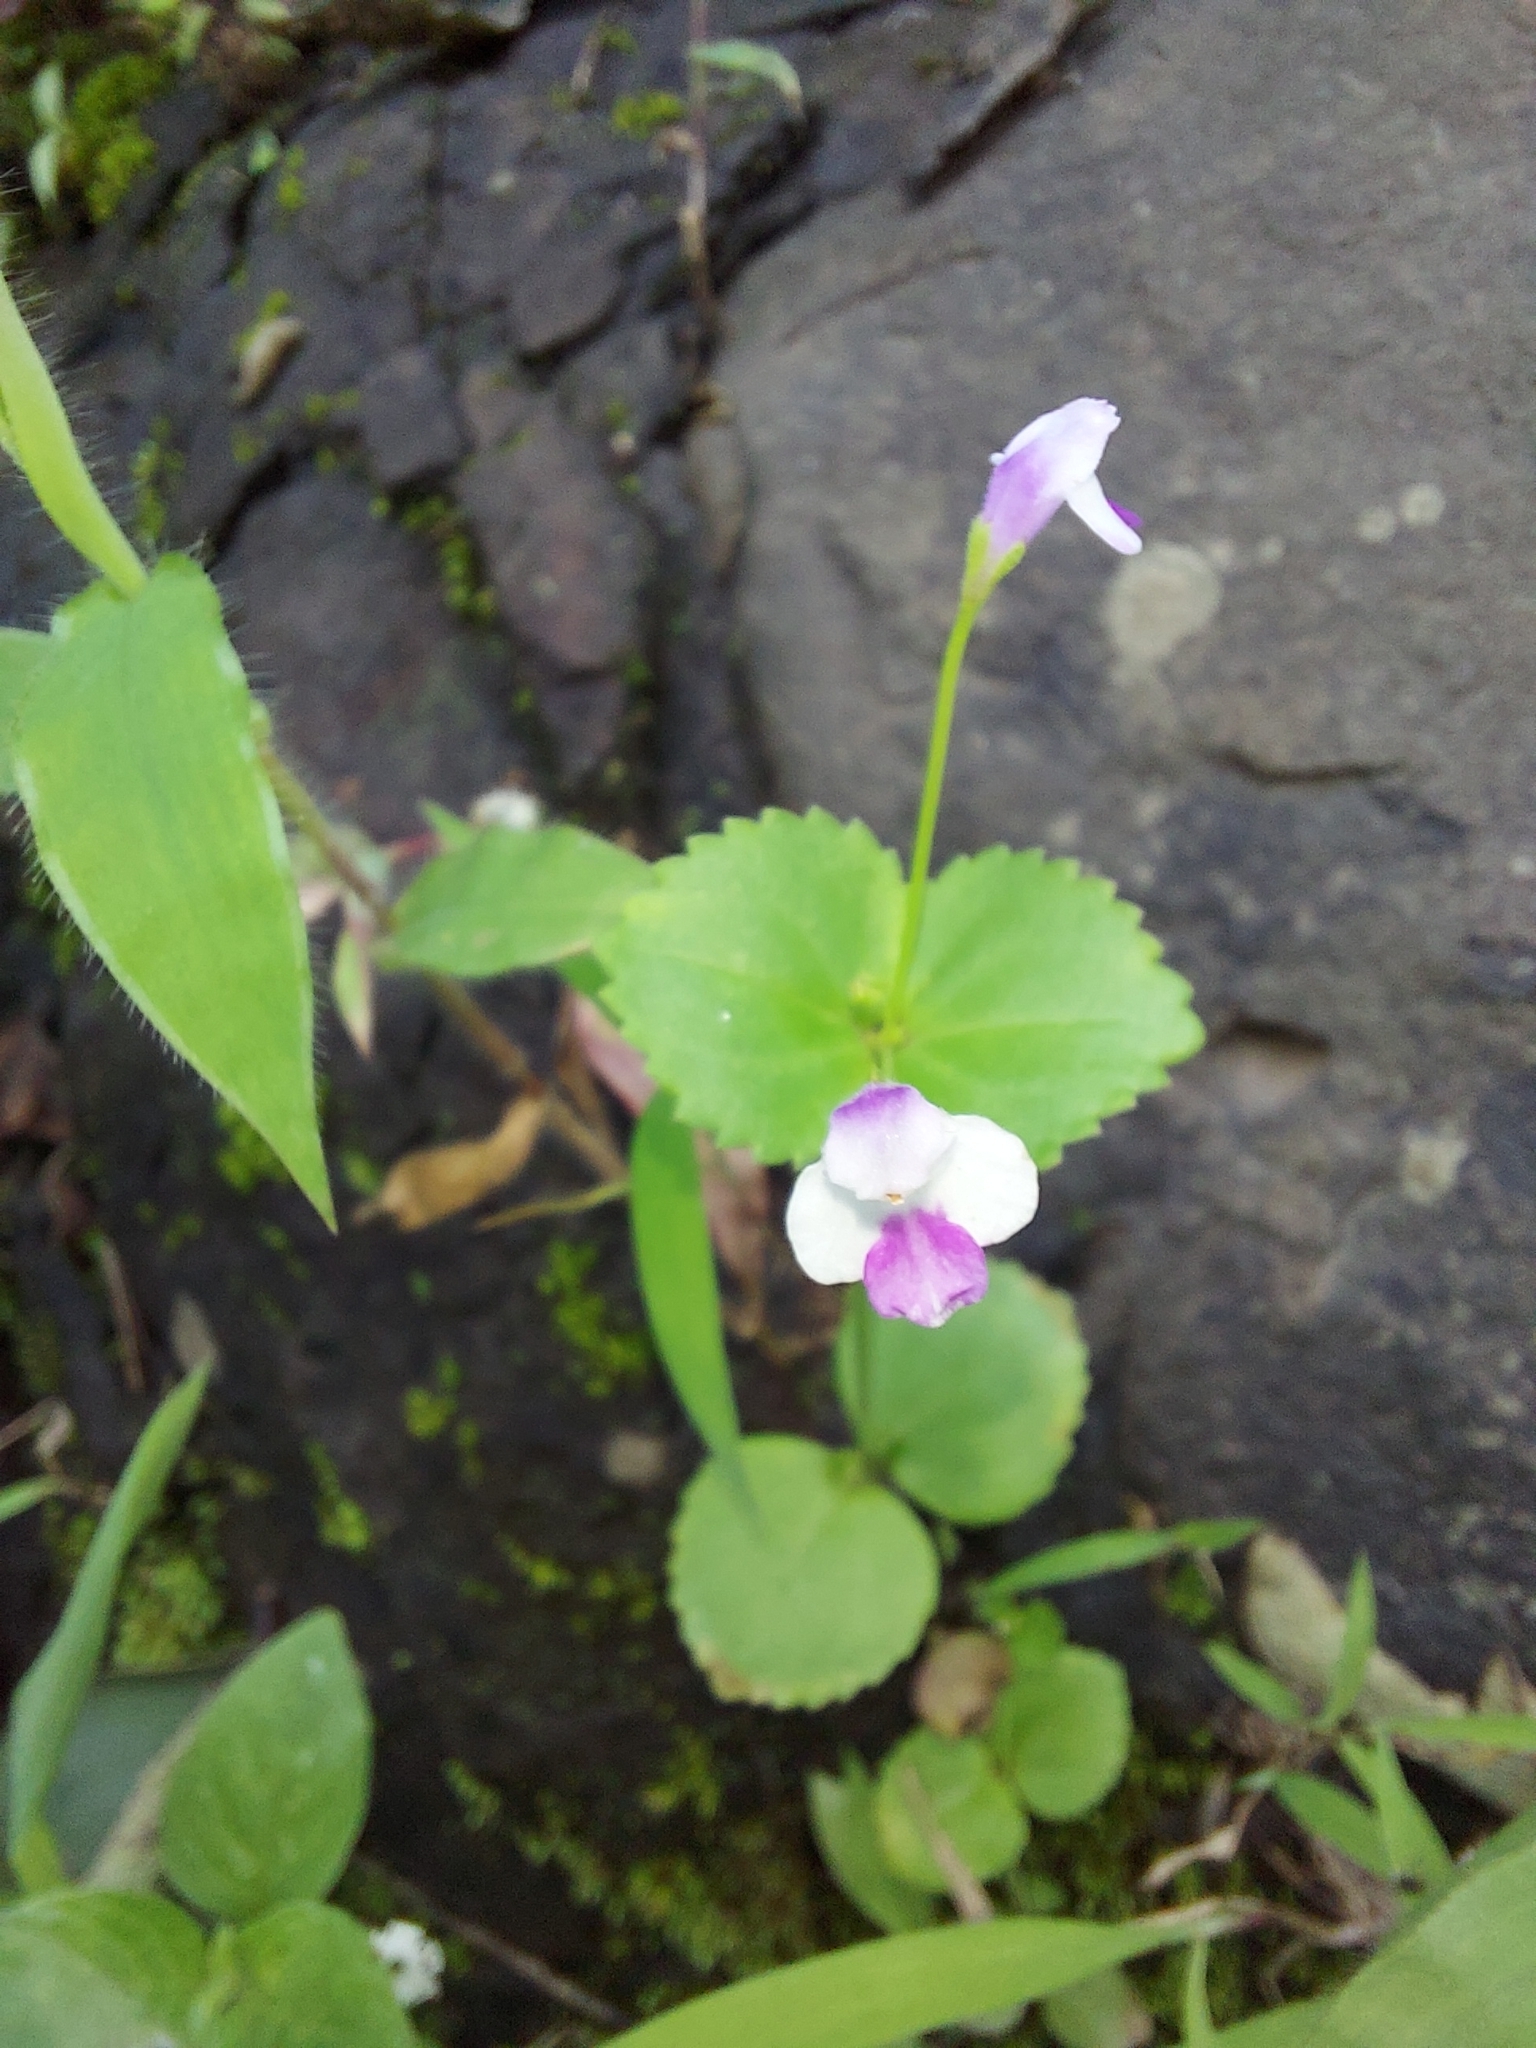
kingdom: Plantae
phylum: Tracheophyta
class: Magnoliopsida
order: Lamiales
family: Linderniaceae
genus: Craterostigma
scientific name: Craterostigma nummulariifolium
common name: False pimpernel
